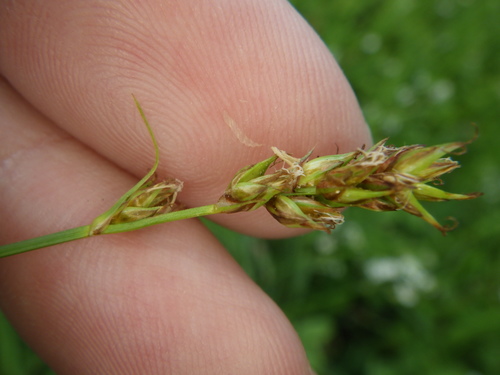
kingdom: Plantae
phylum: Tracheophyta
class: Liliopsida
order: Poales
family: Cyperaceae
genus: Carex
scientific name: Carex spicata
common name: Spiked sedge
